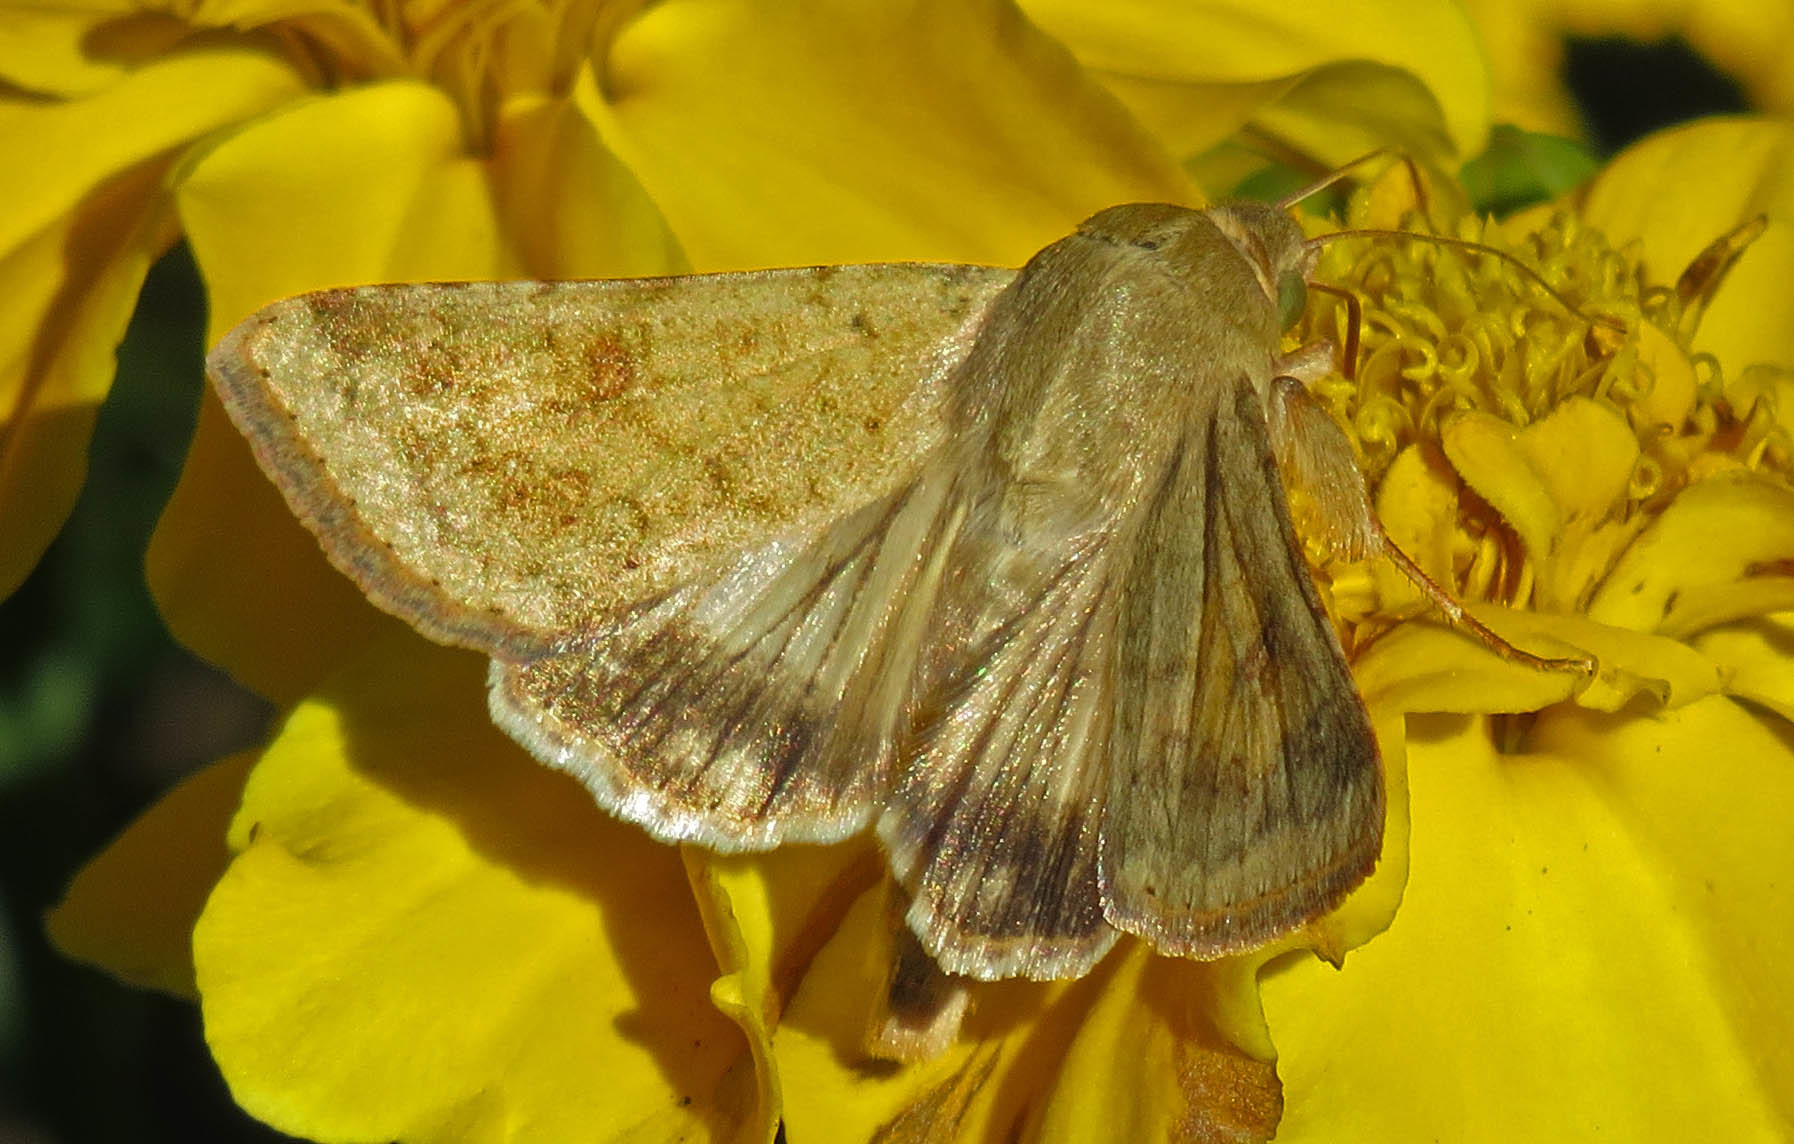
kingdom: Animalia
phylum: Arthropoda
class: Insecta
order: Lepidoptera
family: Noctuidae
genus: Helicoverpa
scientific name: Helicoverpa zea
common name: Bollworm
